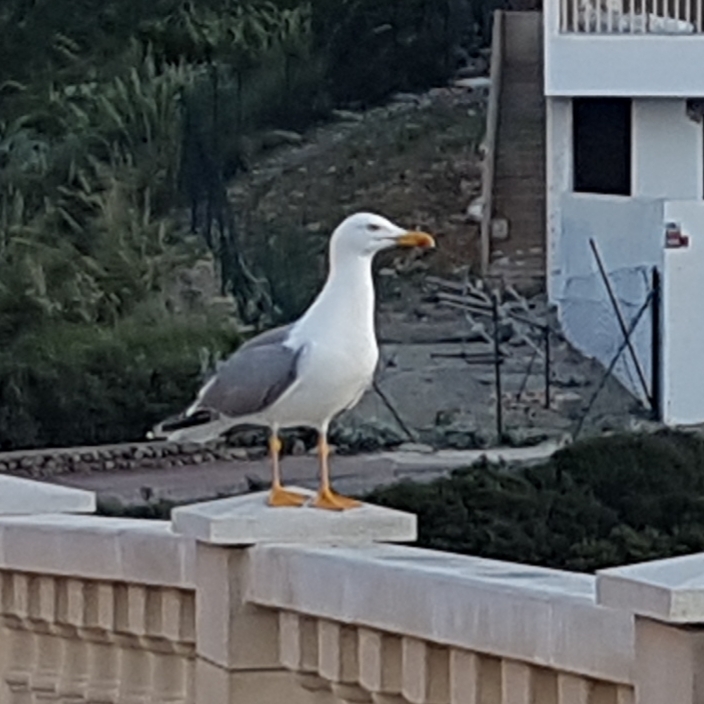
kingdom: Animalia
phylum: Chordata
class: Aves
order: Charadriiformes
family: Laridae
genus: Larus
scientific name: Larus michahellis
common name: Yellow-legged gull
